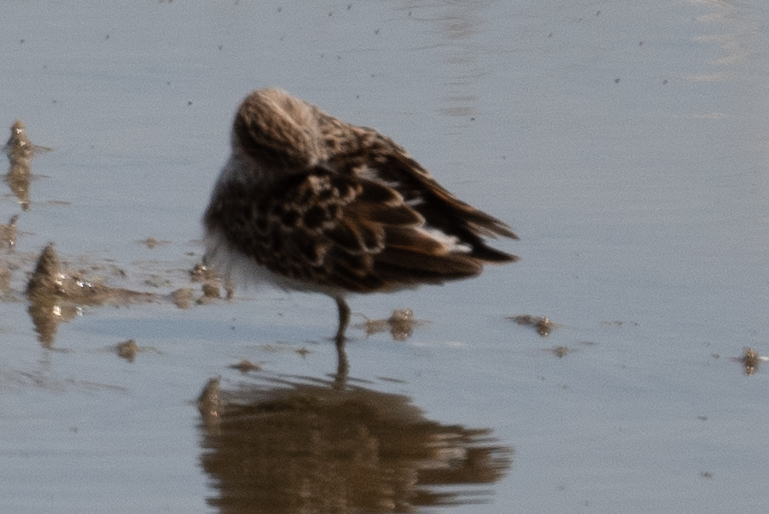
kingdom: Animalia
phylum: Chordata
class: Aves
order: Charadriiformes
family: Scolopacidae
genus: Calidris
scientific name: Calidris minutilla
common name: Least sandpiper
